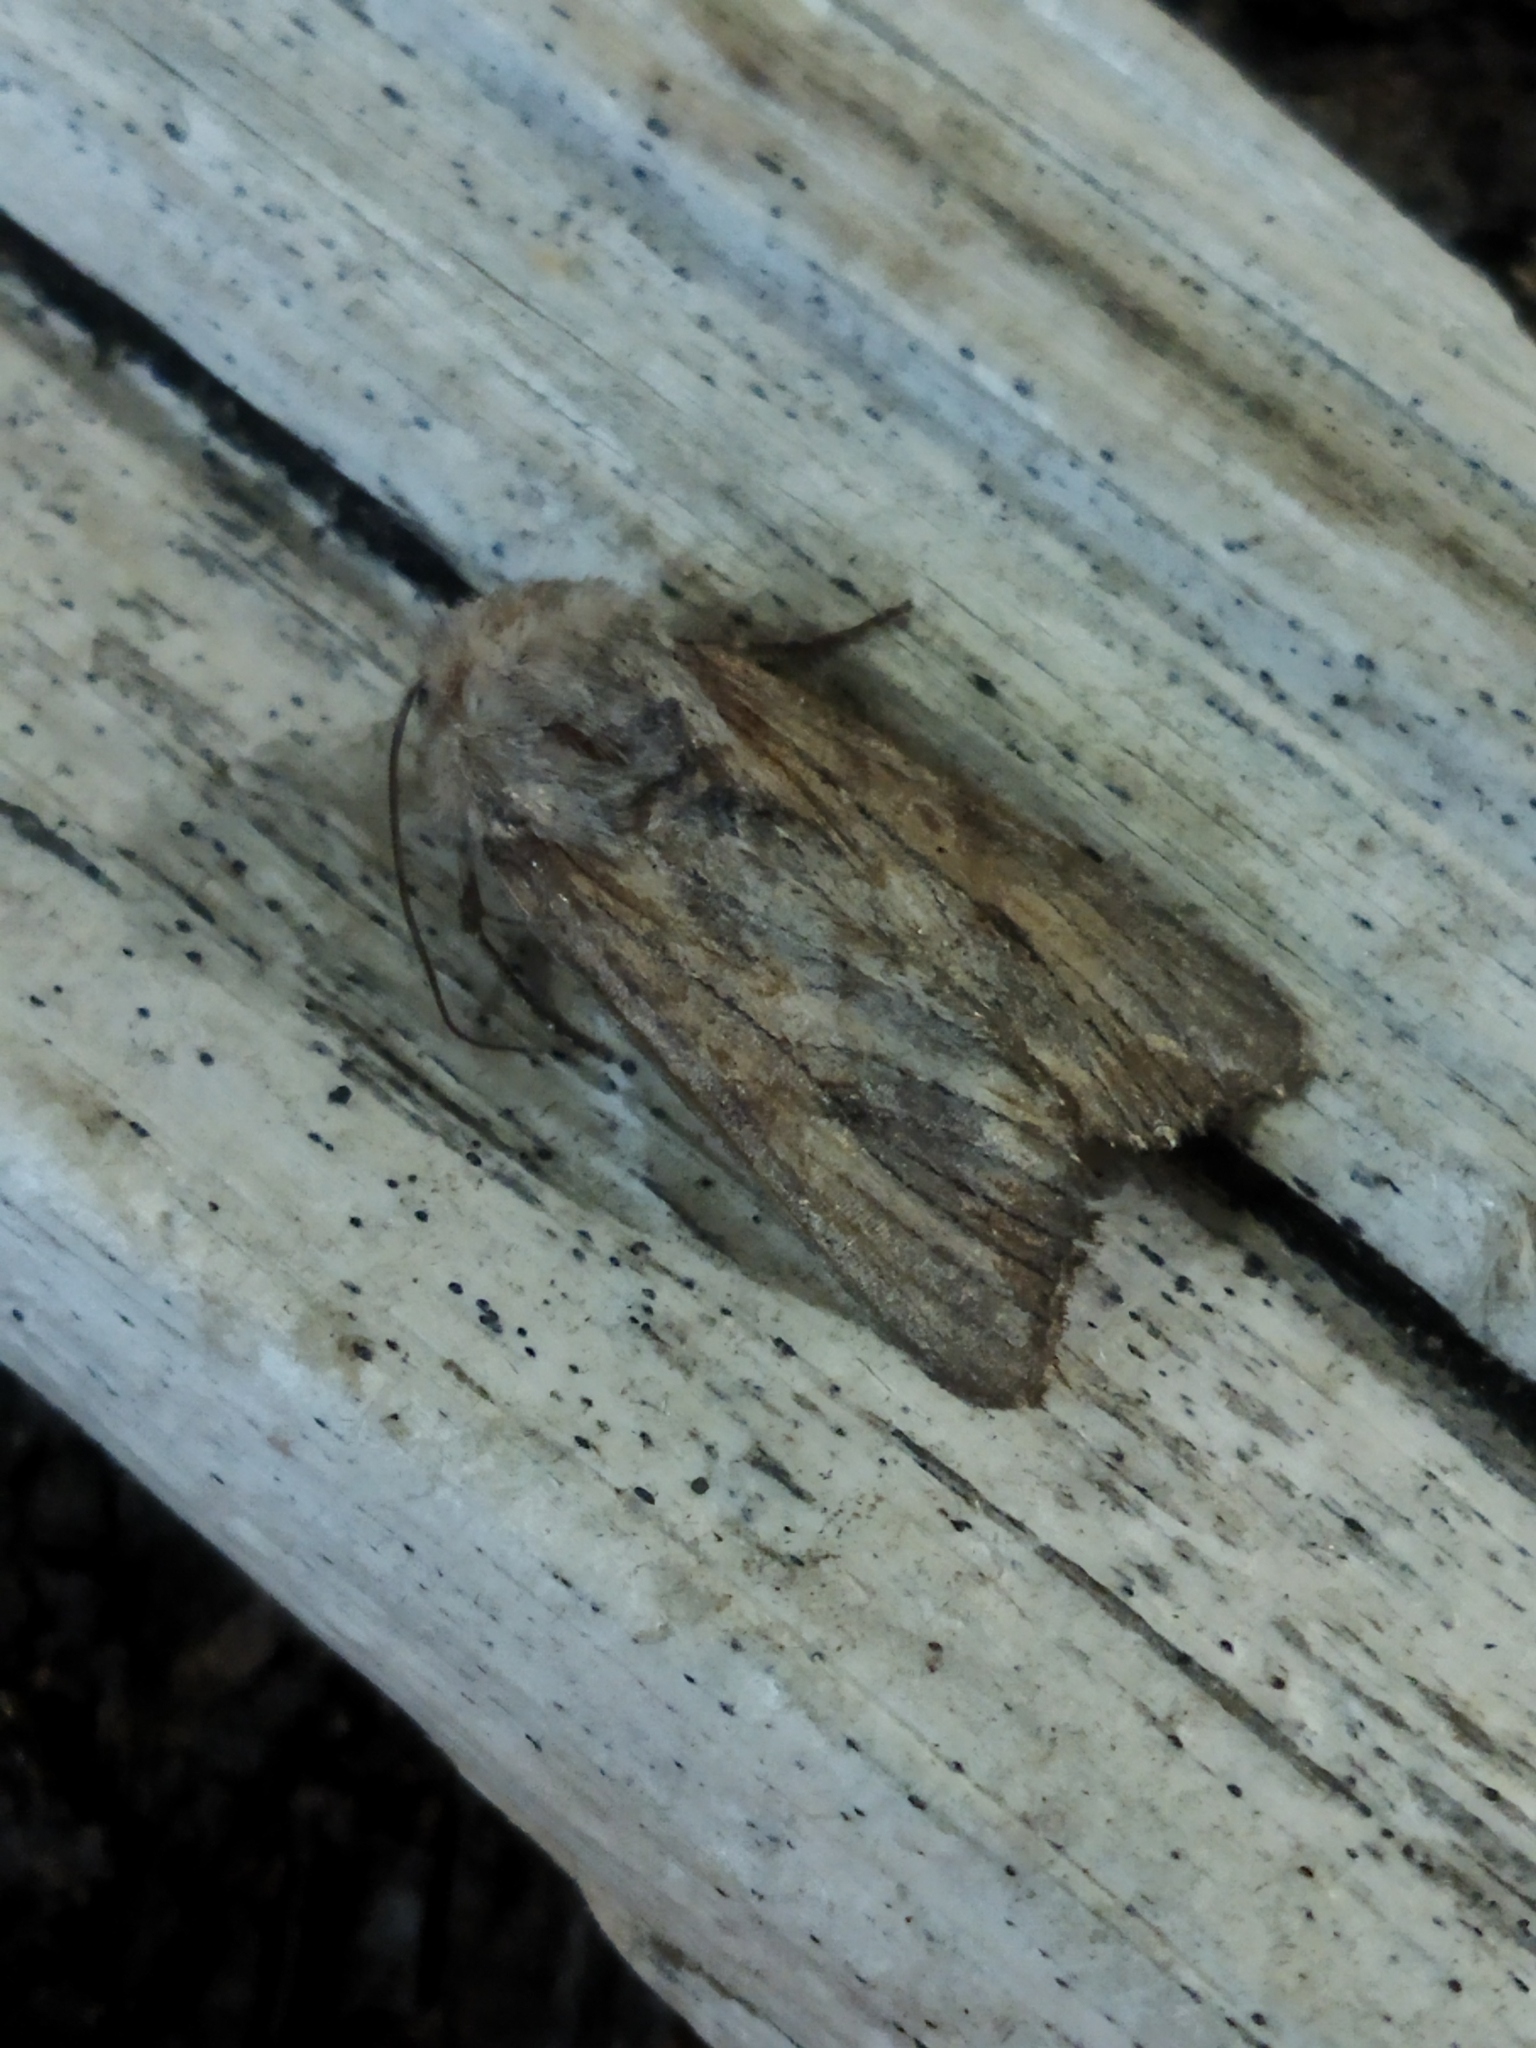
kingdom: Animalia
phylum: Arthropoda
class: Insecta
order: Lepidoptera
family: Noctuidae
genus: Egira
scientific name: Egira
